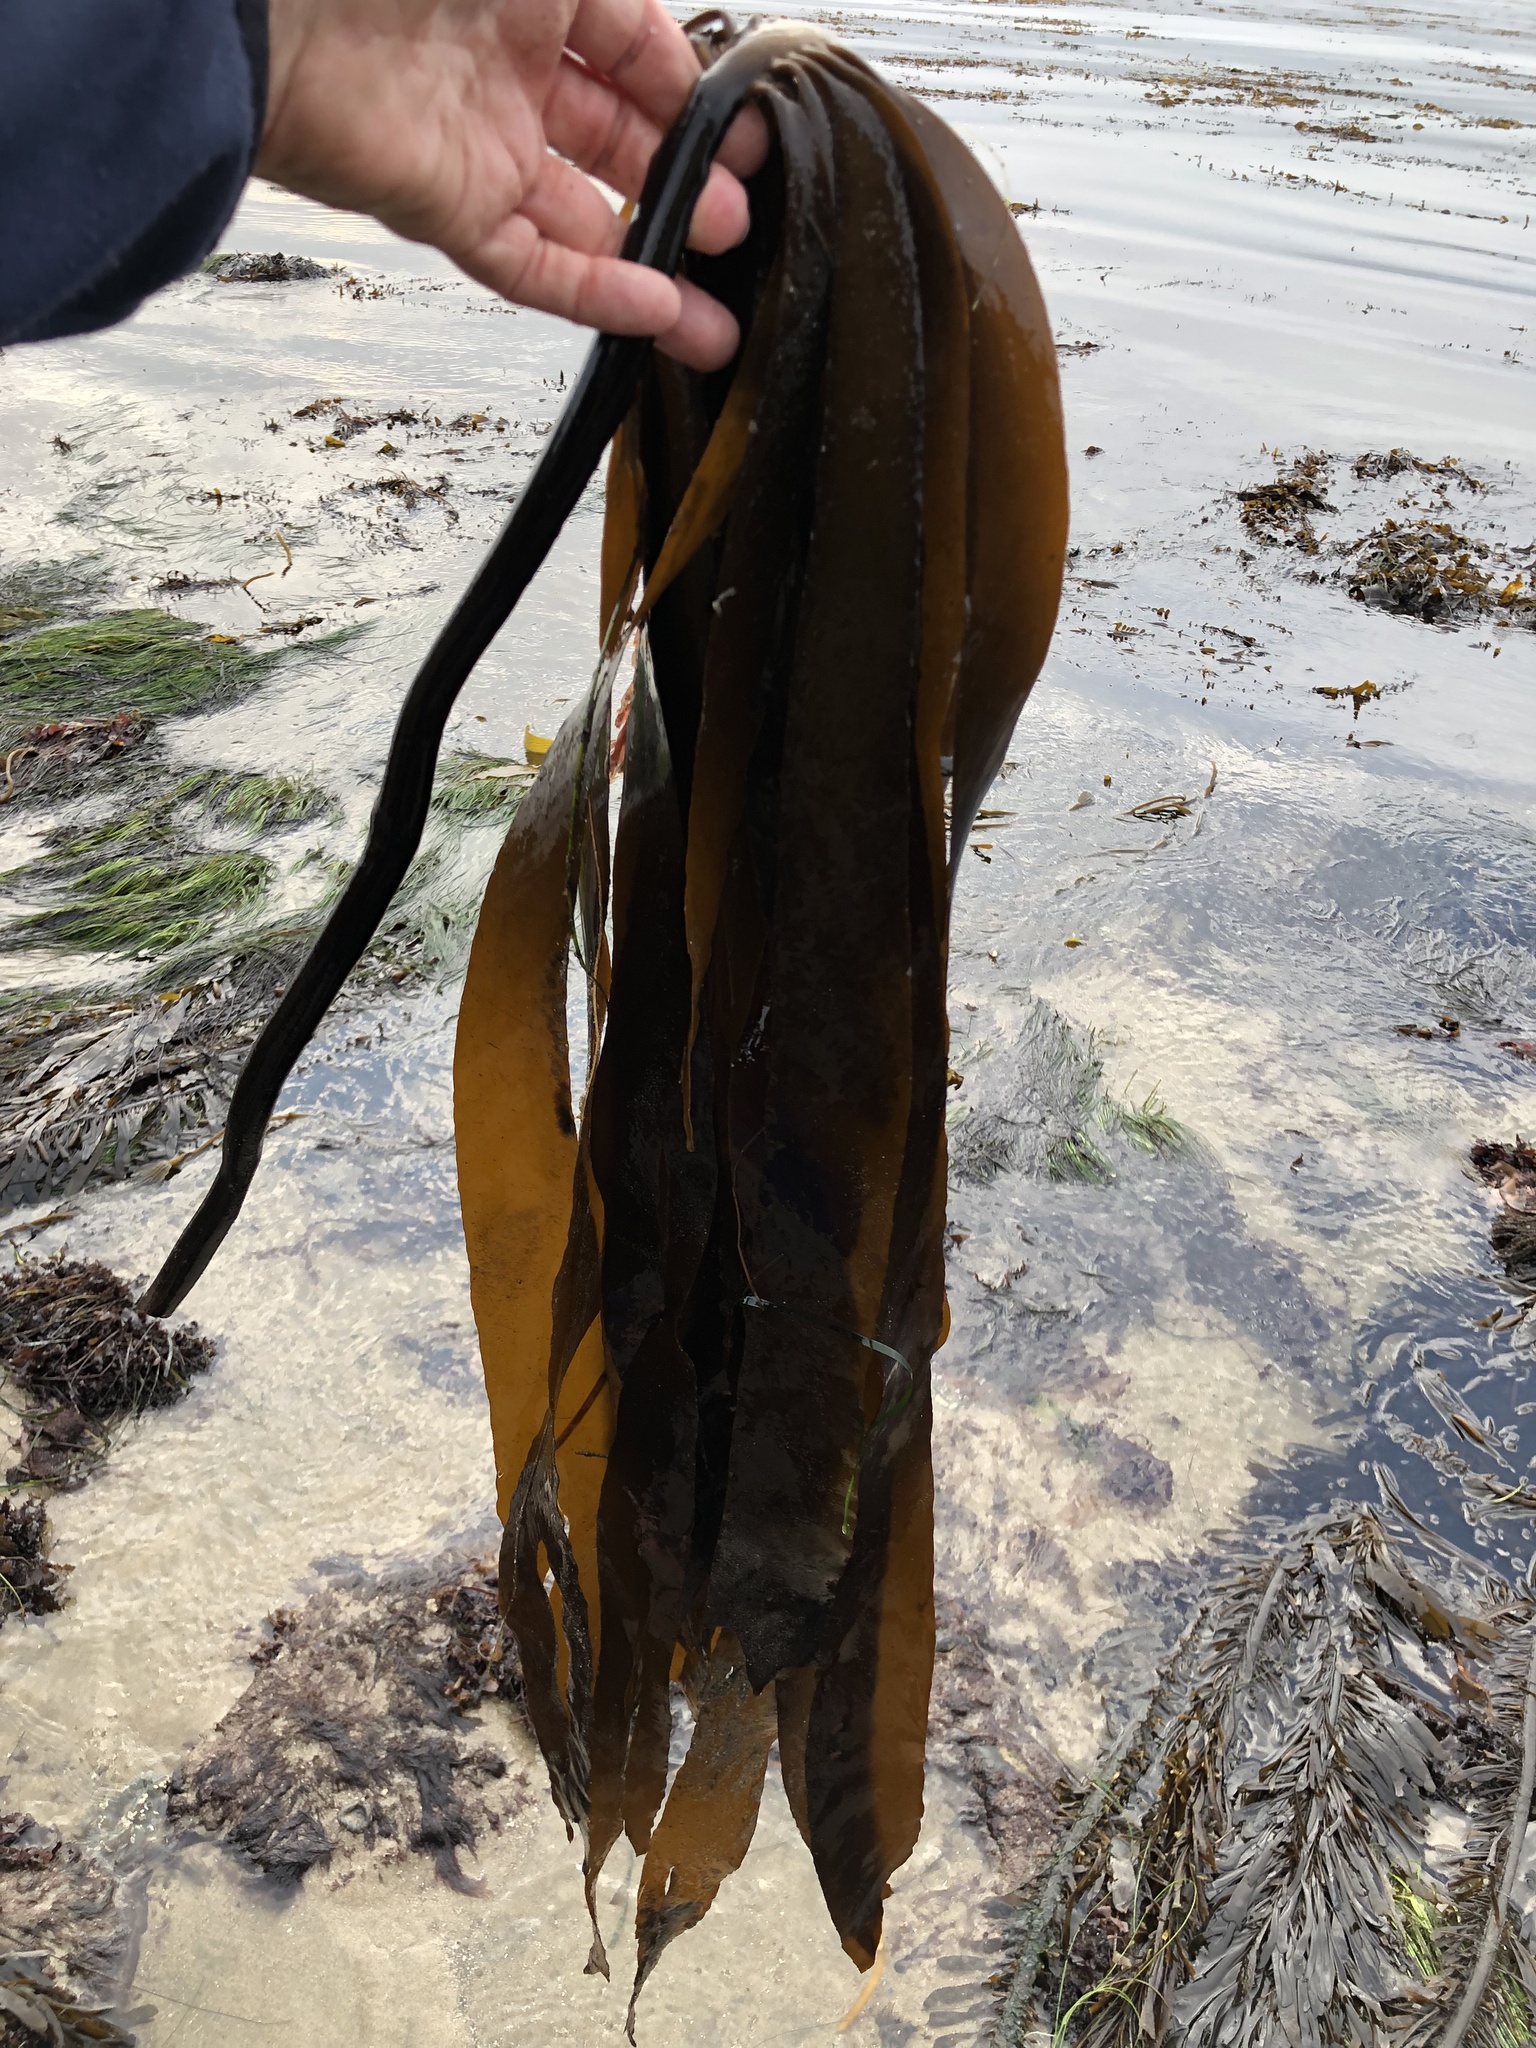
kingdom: Chromista
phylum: Ochrophyta
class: Phaeophyceae
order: Laminariales
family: Alariaceae
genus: Pterygophora
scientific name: Pterygophora californica
